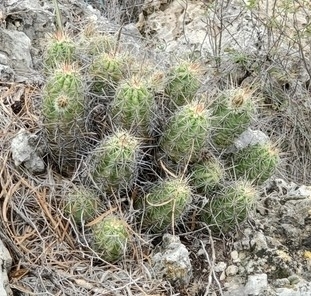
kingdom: Plantae
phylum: Tracheophyta
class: Magnoliopsida
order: Caryophyllales
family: Cactaceae
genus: Echinocereus
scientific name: Echinocereus enneacanthus
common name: Pitaya
